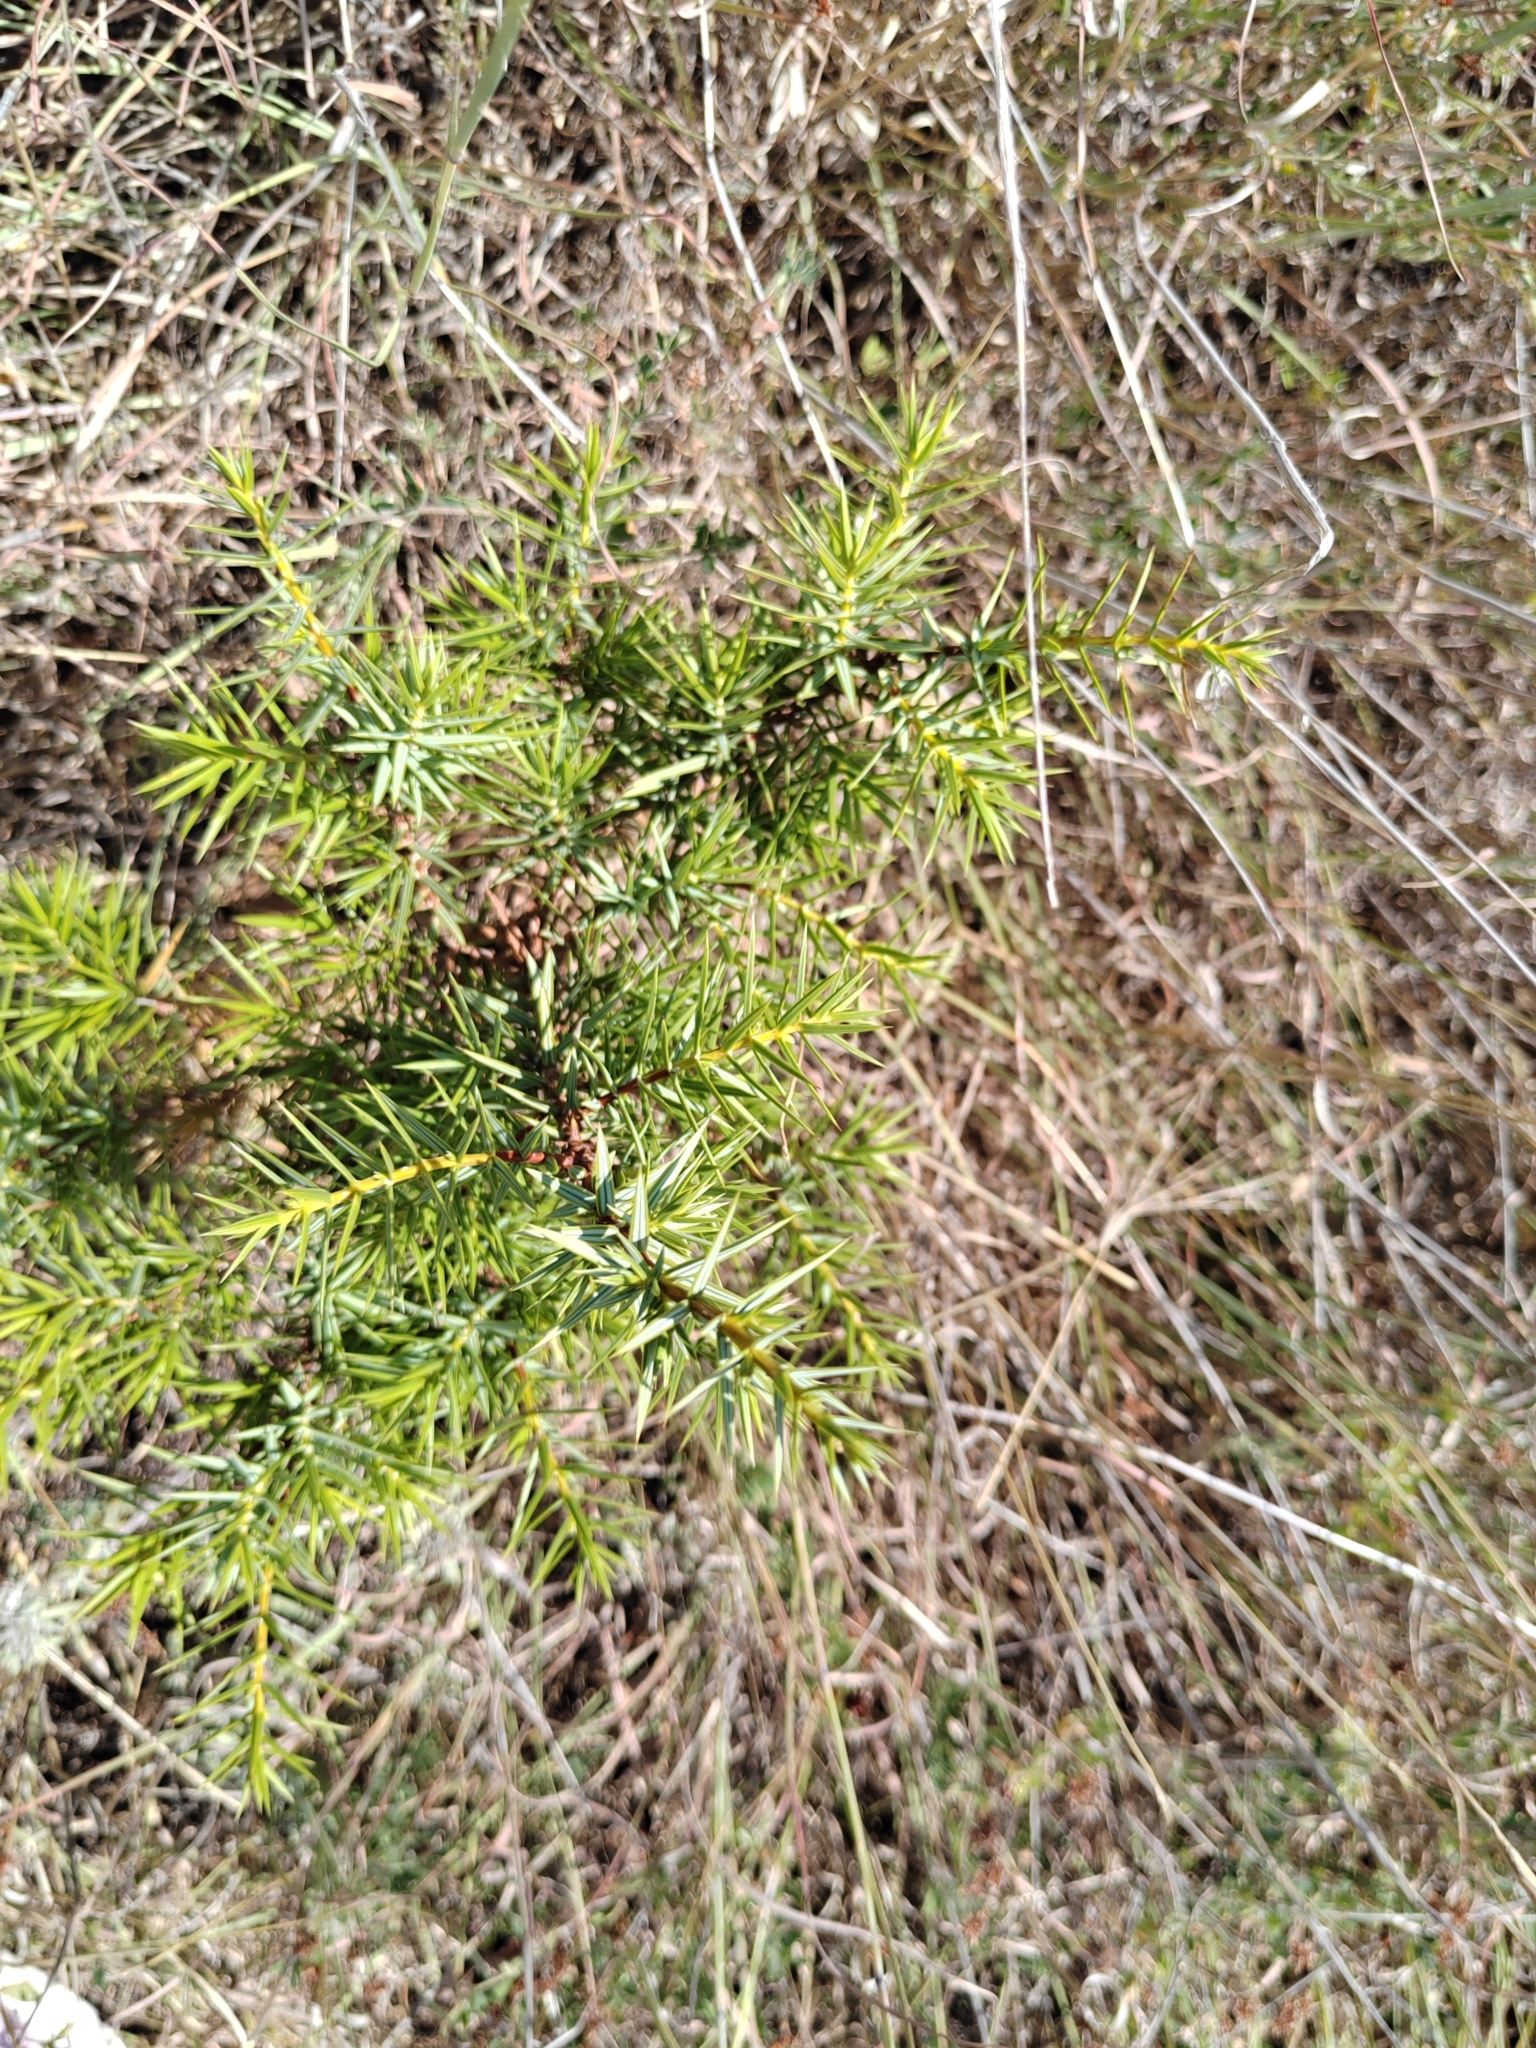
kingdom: Plantae
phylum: Tracheophyta
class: Pinopsida
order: Pinales
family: Cupressaceae
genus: Juniperus
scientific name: Juniperus oxycedrus
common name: Prickly juniper
